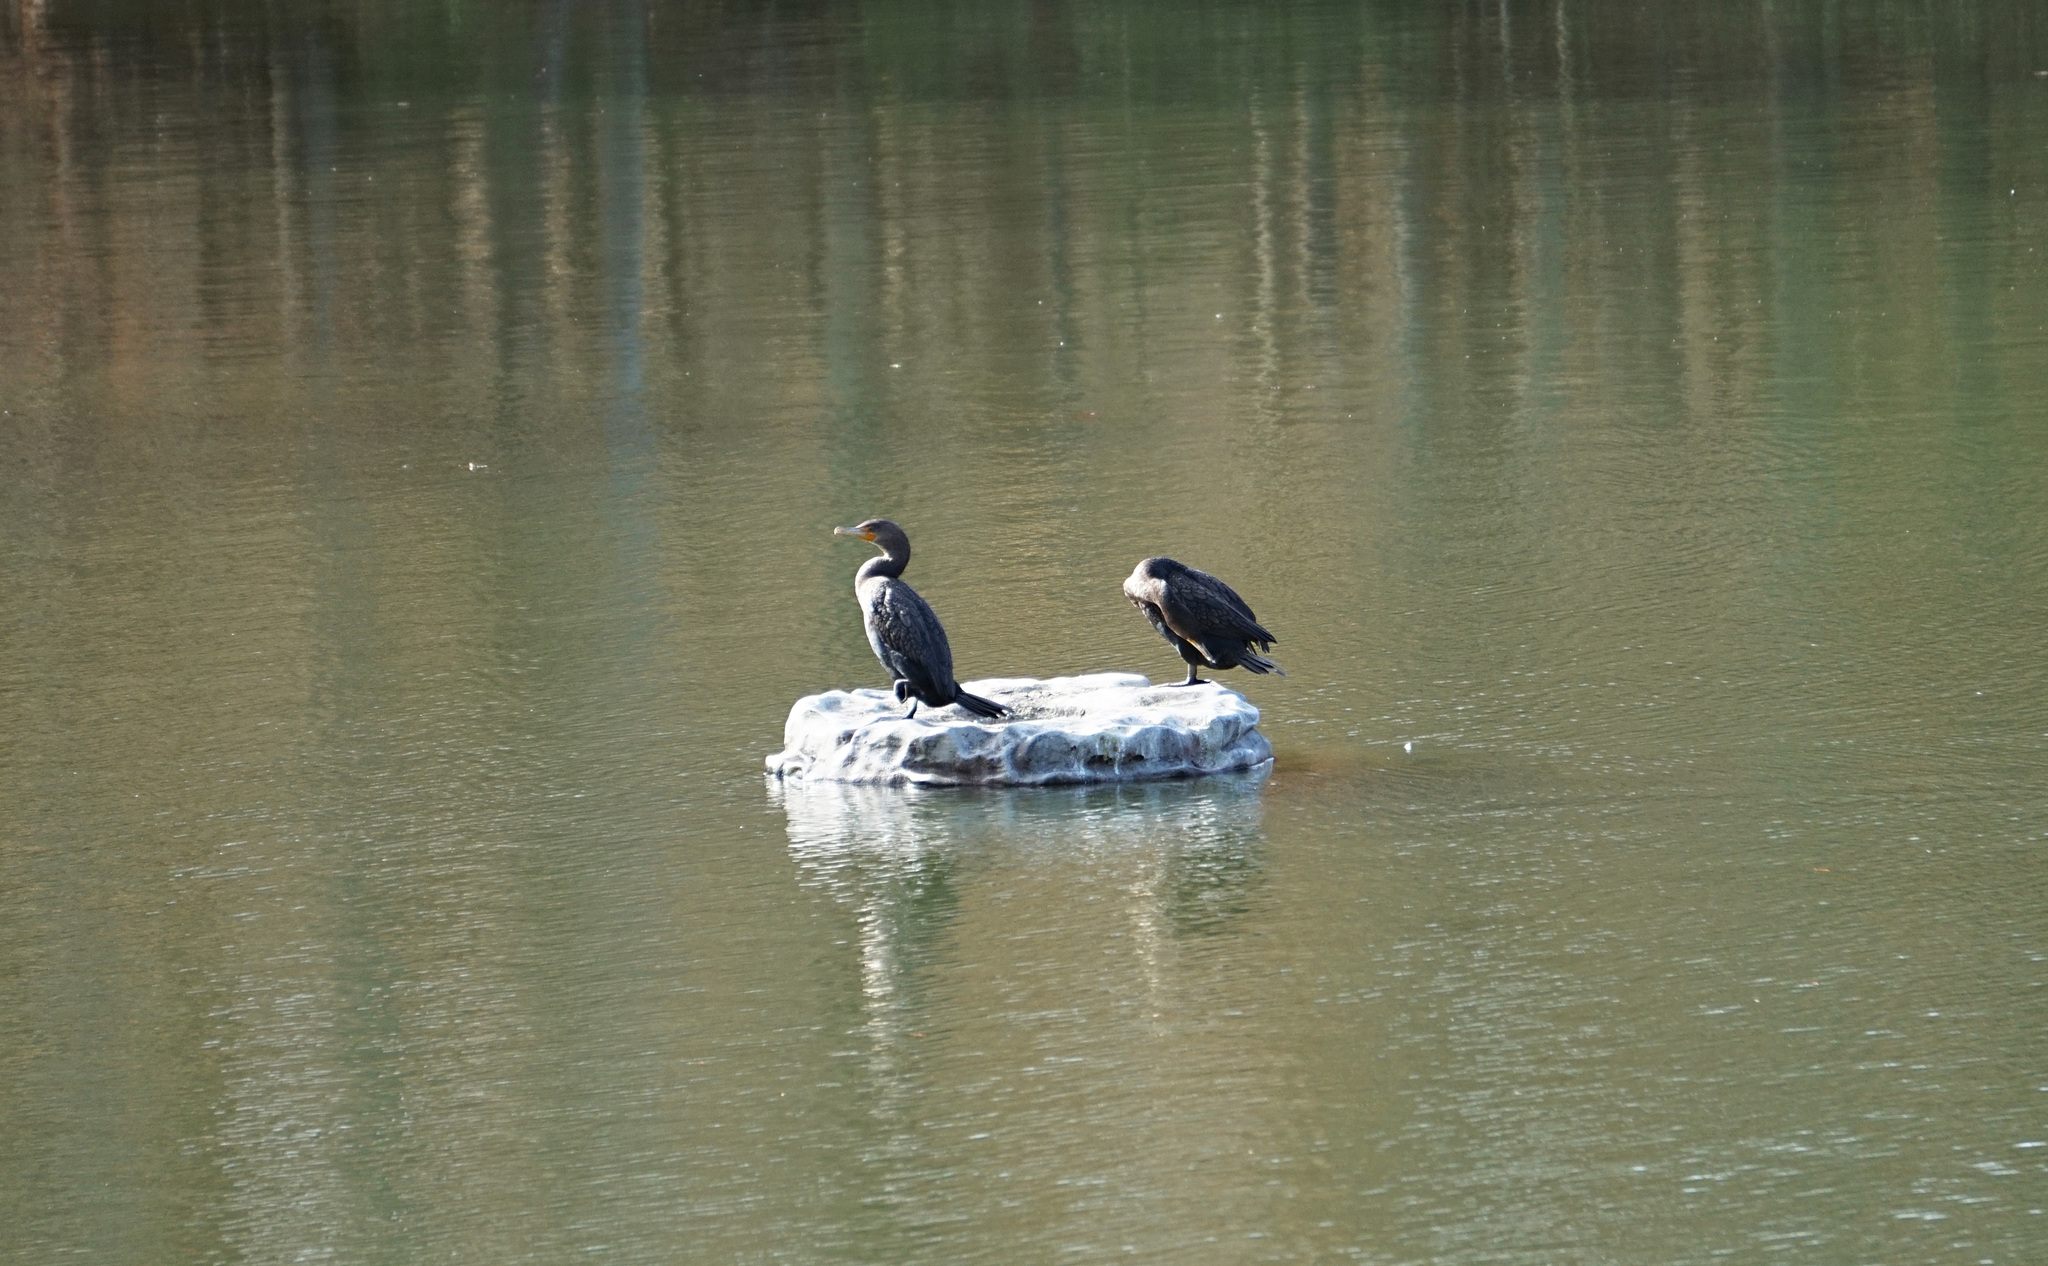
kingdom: Animalia
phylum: Chordata
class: Aves
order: Suliformes
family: Phalacrocoracidae
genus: Phalacrocorax
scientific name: Phalacrocorax auritus
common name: Double-crested cormorant
